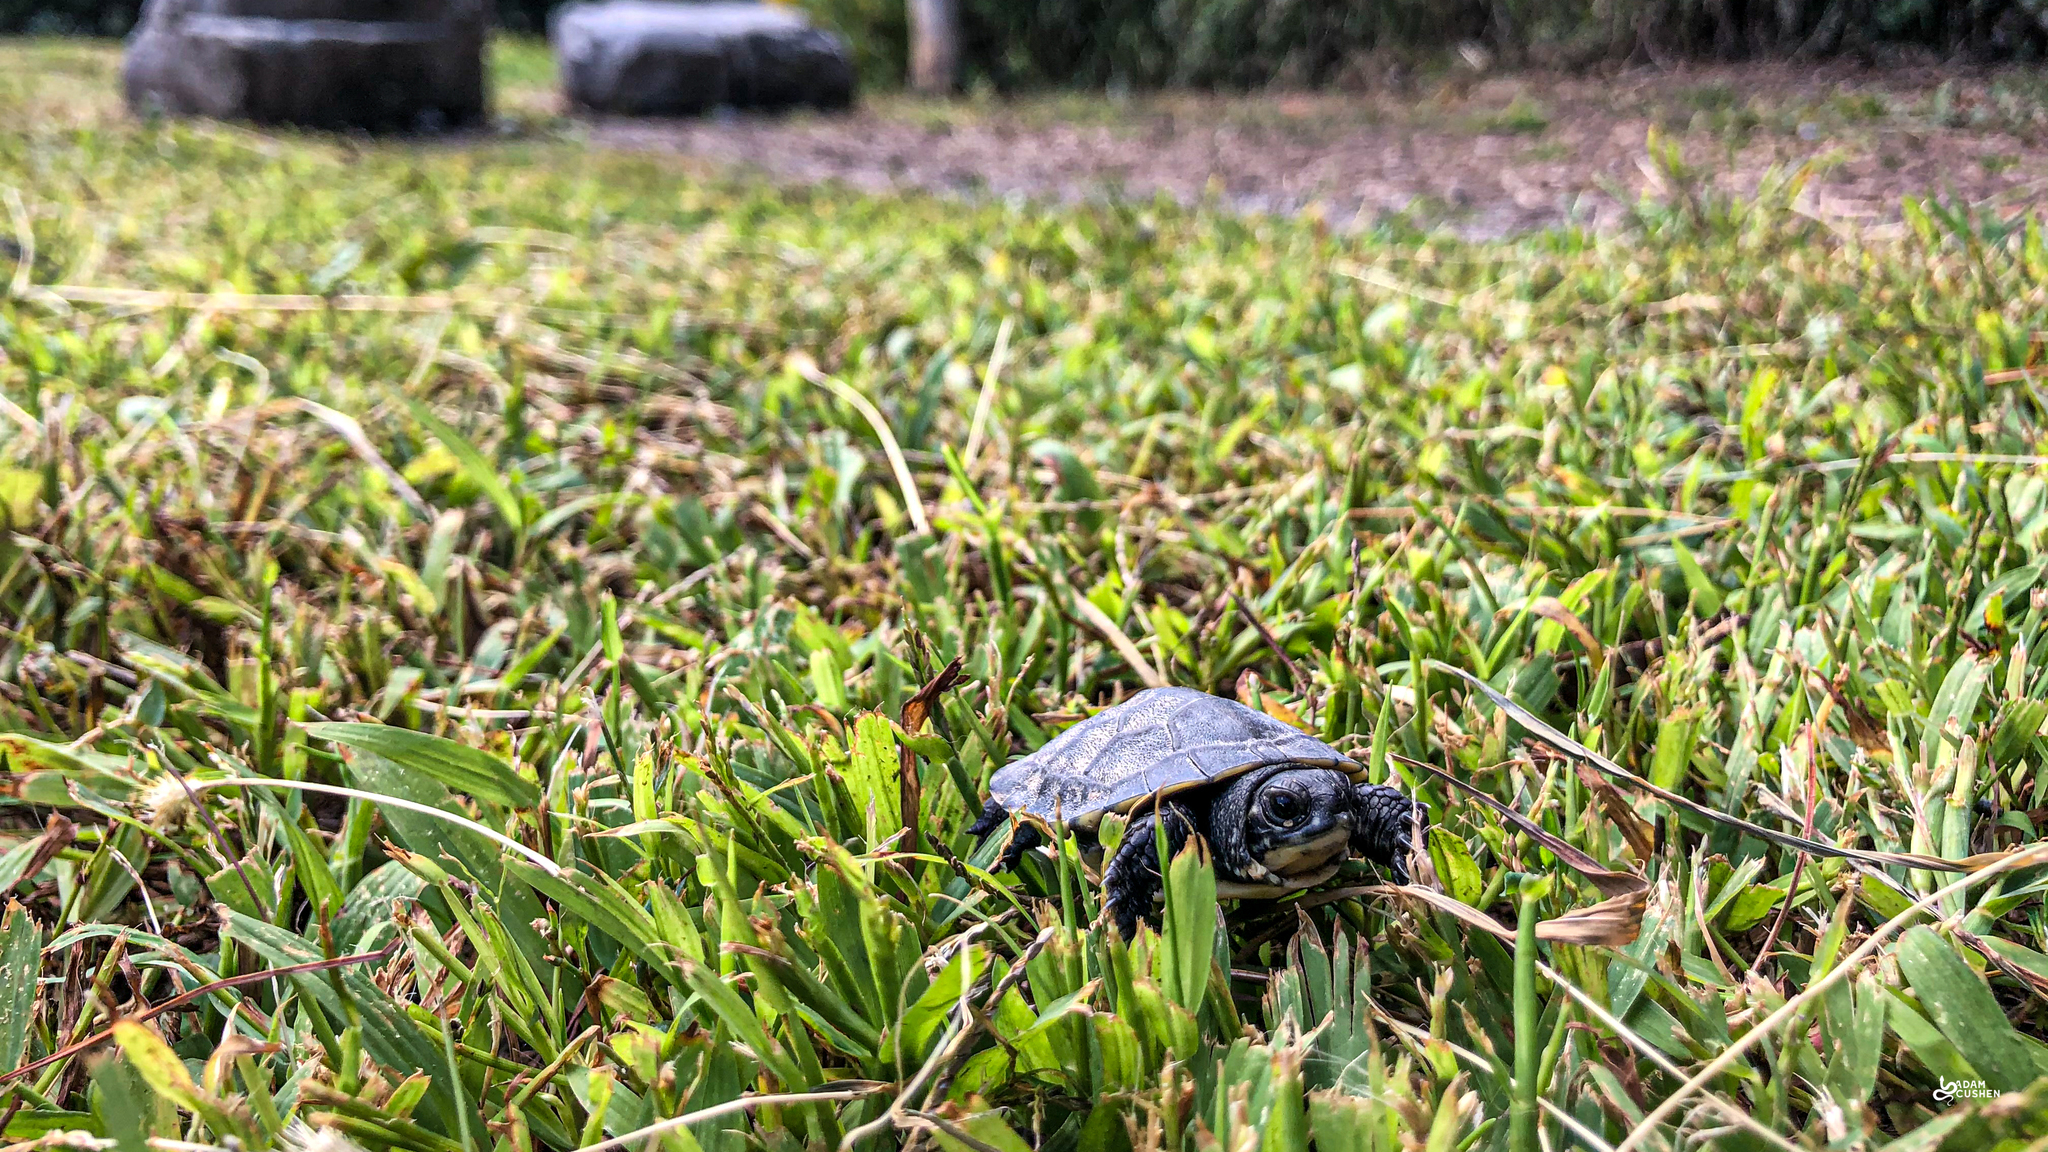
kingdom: Animalia
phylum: Chordata
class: Testudines
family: Emydidae
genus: Emys
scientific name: Emys blandingii
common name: Blanding's turtle
